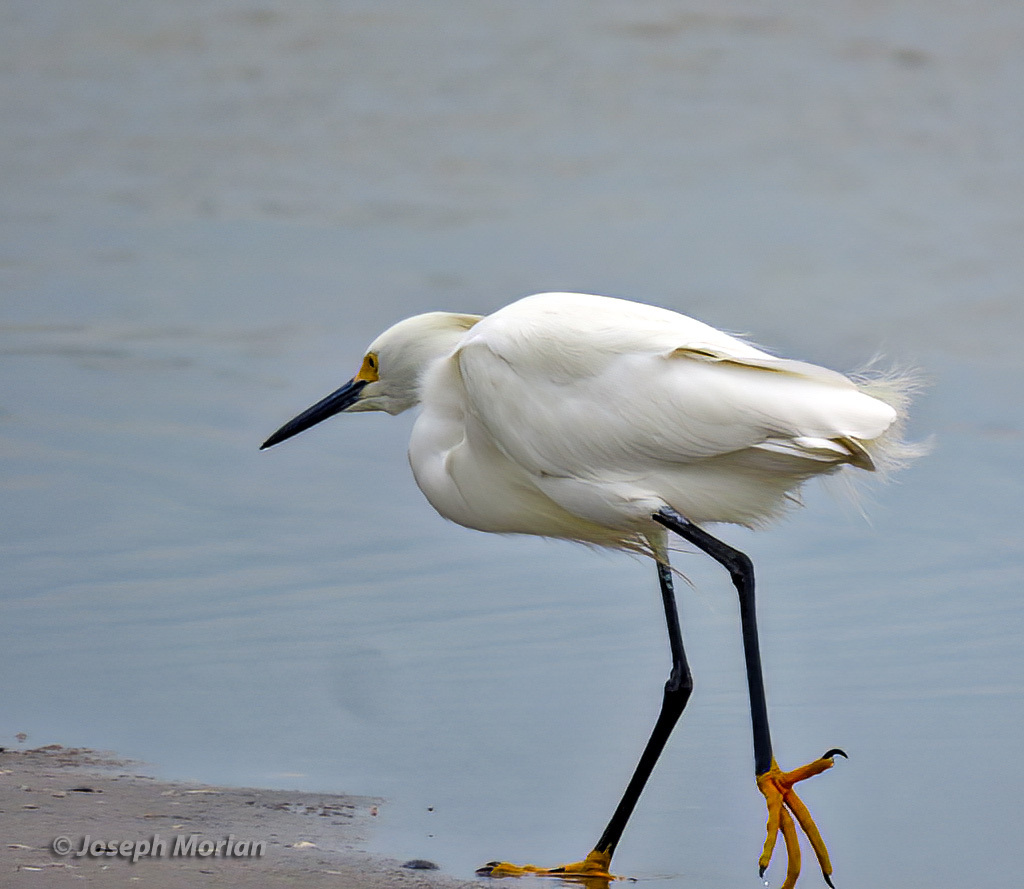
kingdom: Animalia
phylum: Chordata
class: Aves
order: Pelecaniformes
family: Ardeidae
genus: Egretta
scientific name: Egretta thula
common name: Snowy egret
